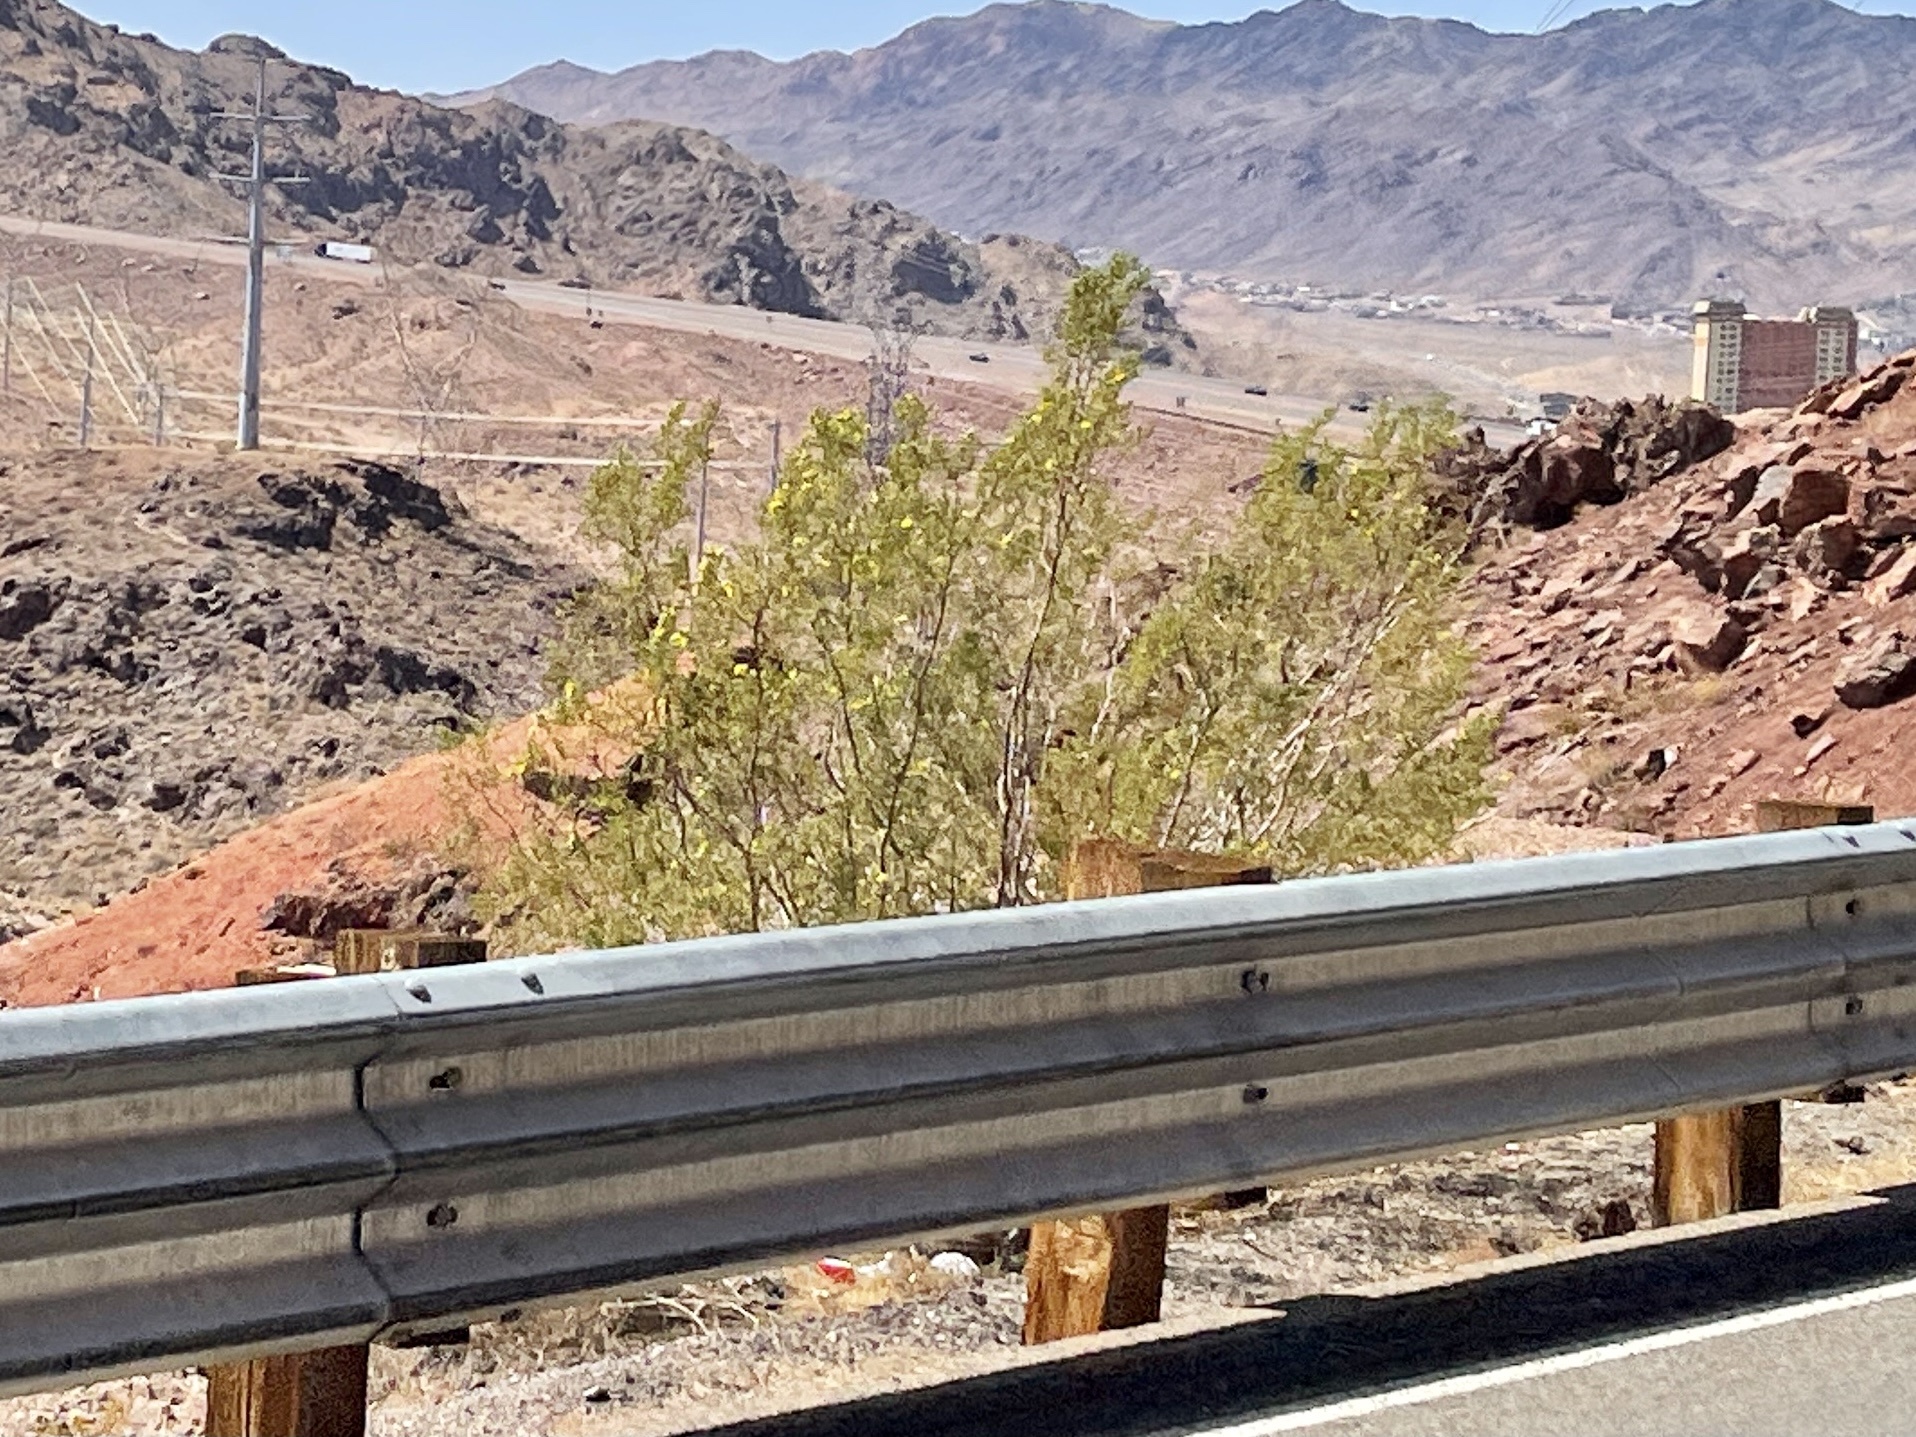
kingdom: Plantae
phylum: Tracheophyta
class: Magnoliopsida
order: Zygophyllales
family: Zygophyllaceae
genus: Larrea
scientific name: Larrea tridentata
